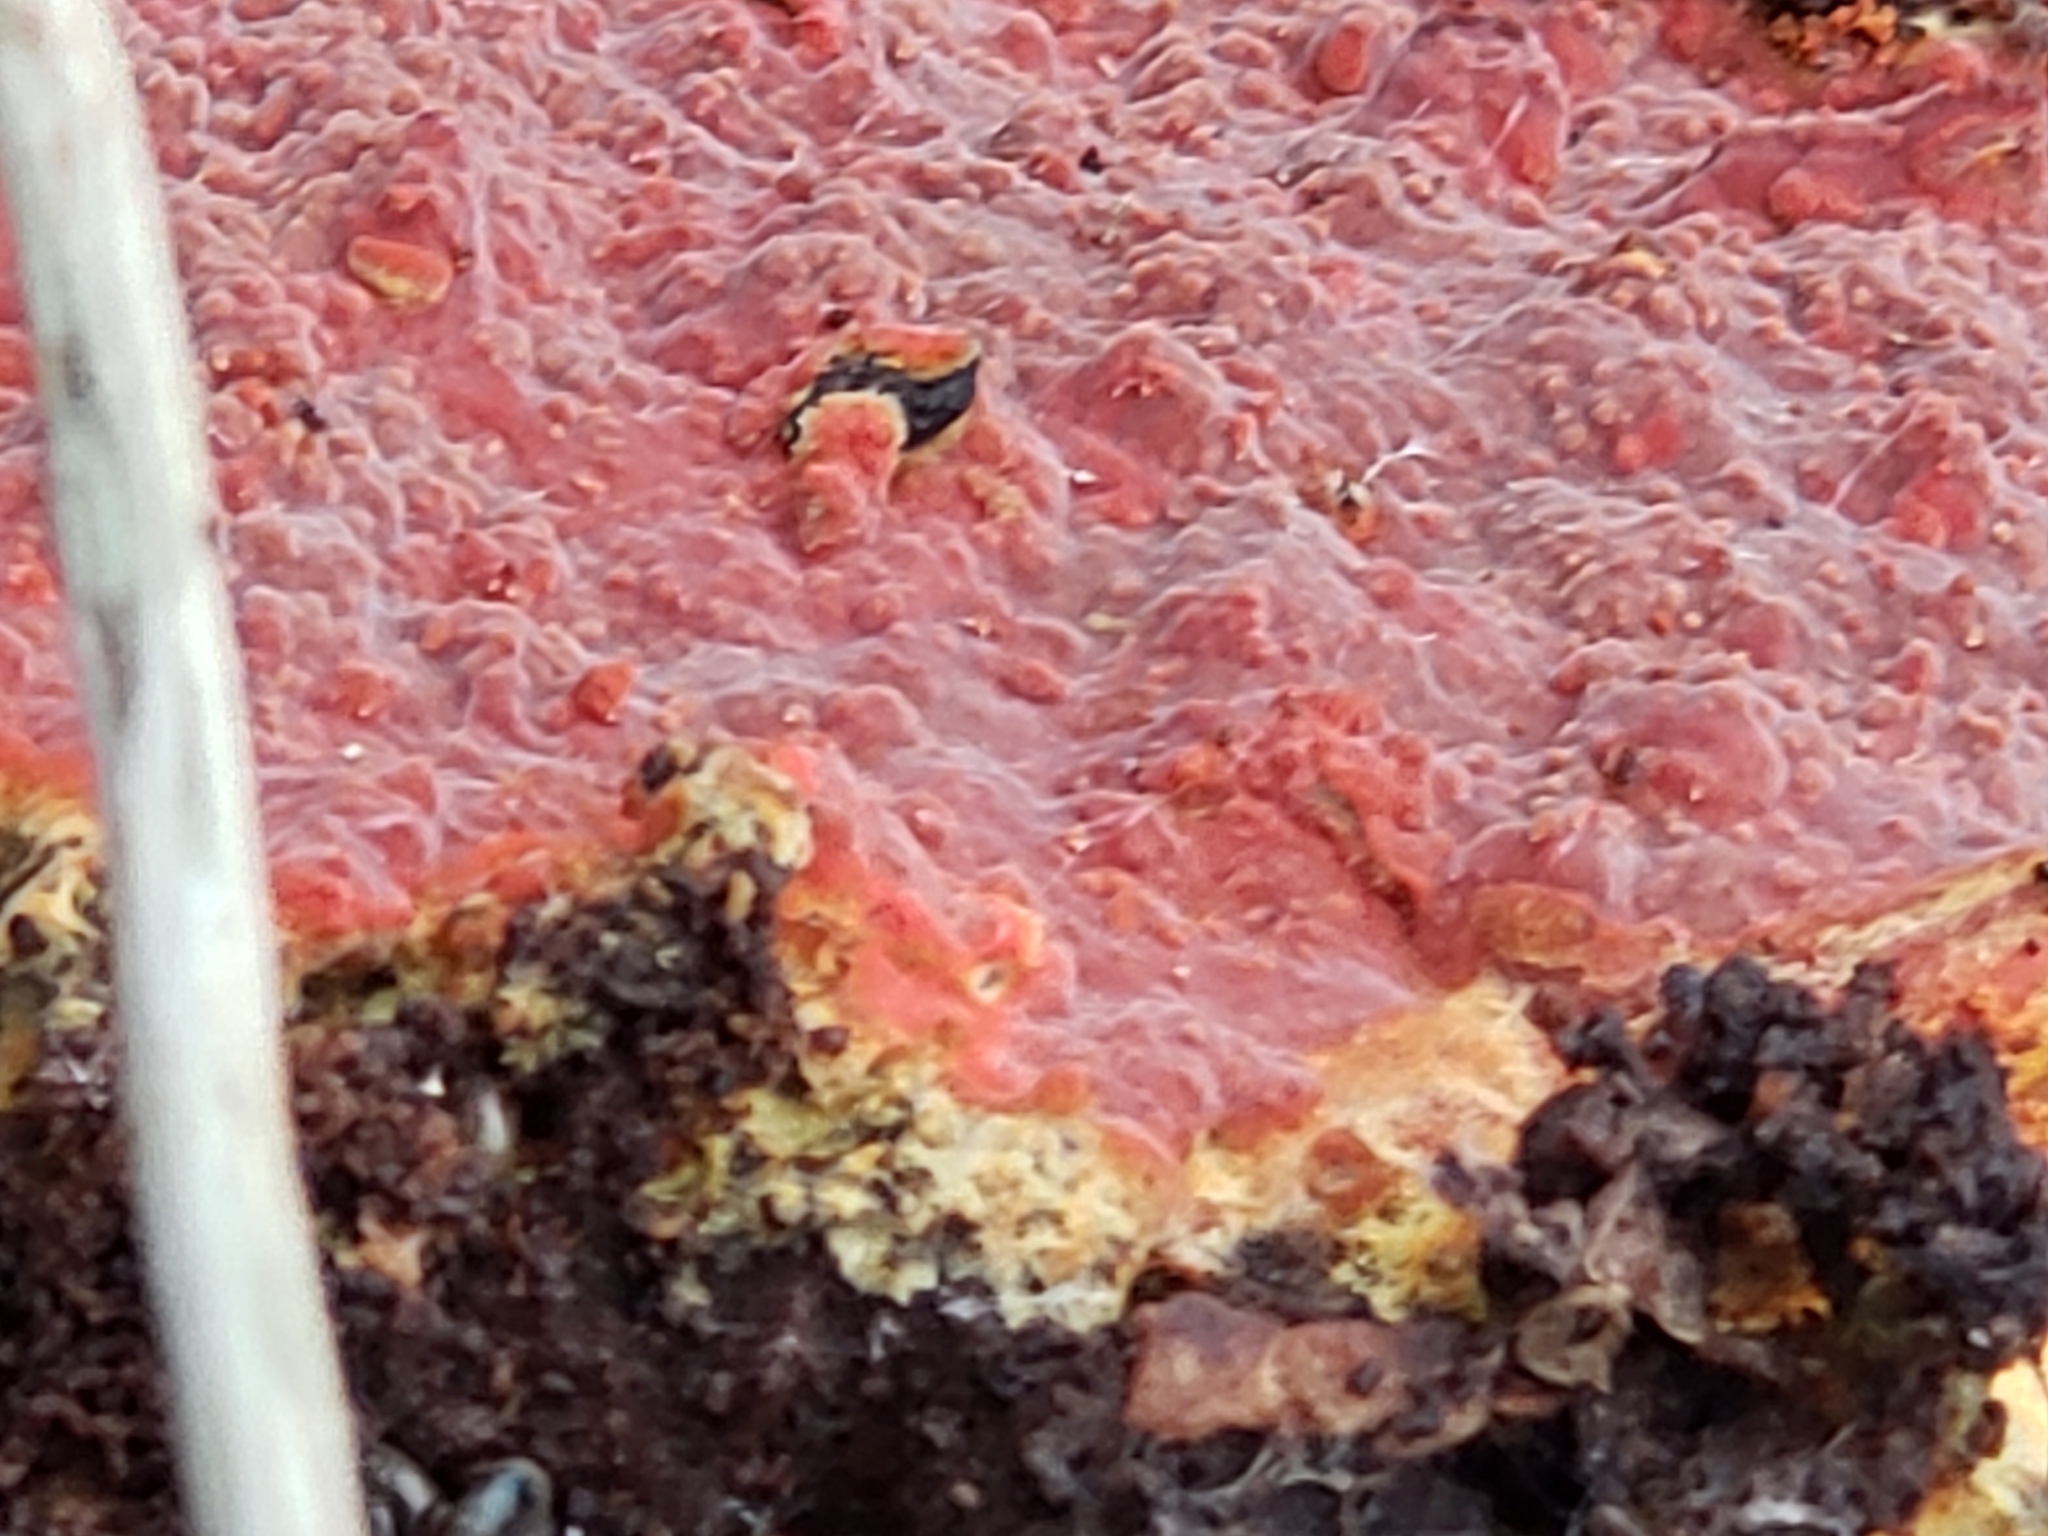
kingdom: Fungi
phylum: Basidiomycota
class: Agaricomycetes
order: Polyporales
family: Meruliaceae
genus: Phlebia
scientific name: Phlebia coccineofulva
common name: Scarlet waxcrust
